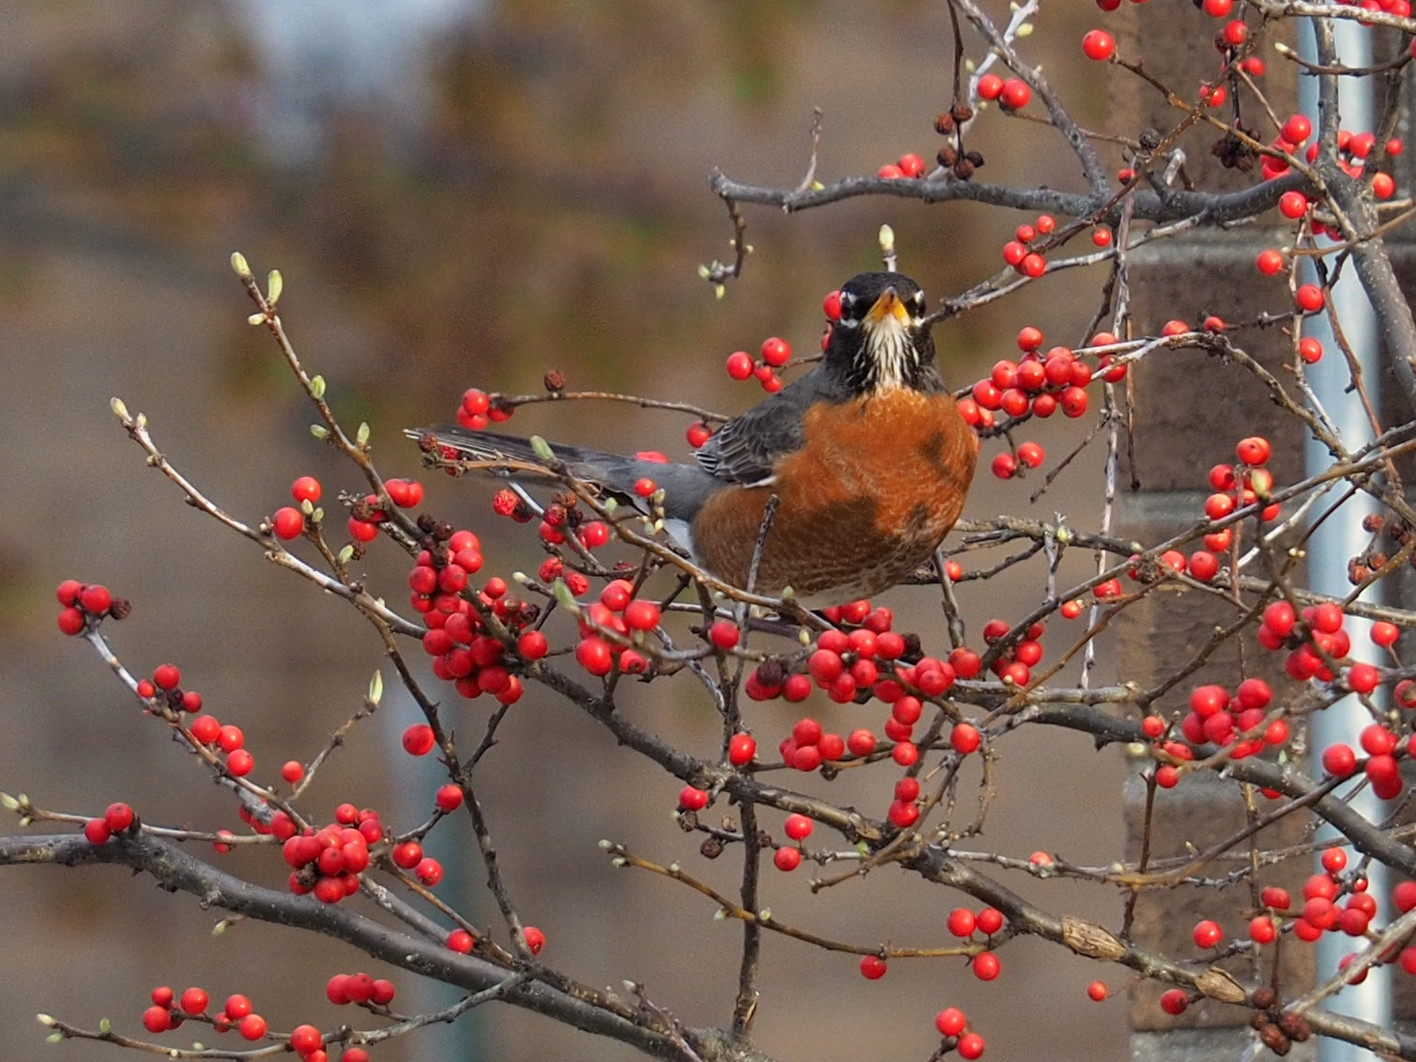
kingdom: Animalia
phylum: Chordata
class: Aves
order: Passeriformes
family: Turdidae
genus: Turdus
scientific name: Turdus migratorius
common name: American robin
